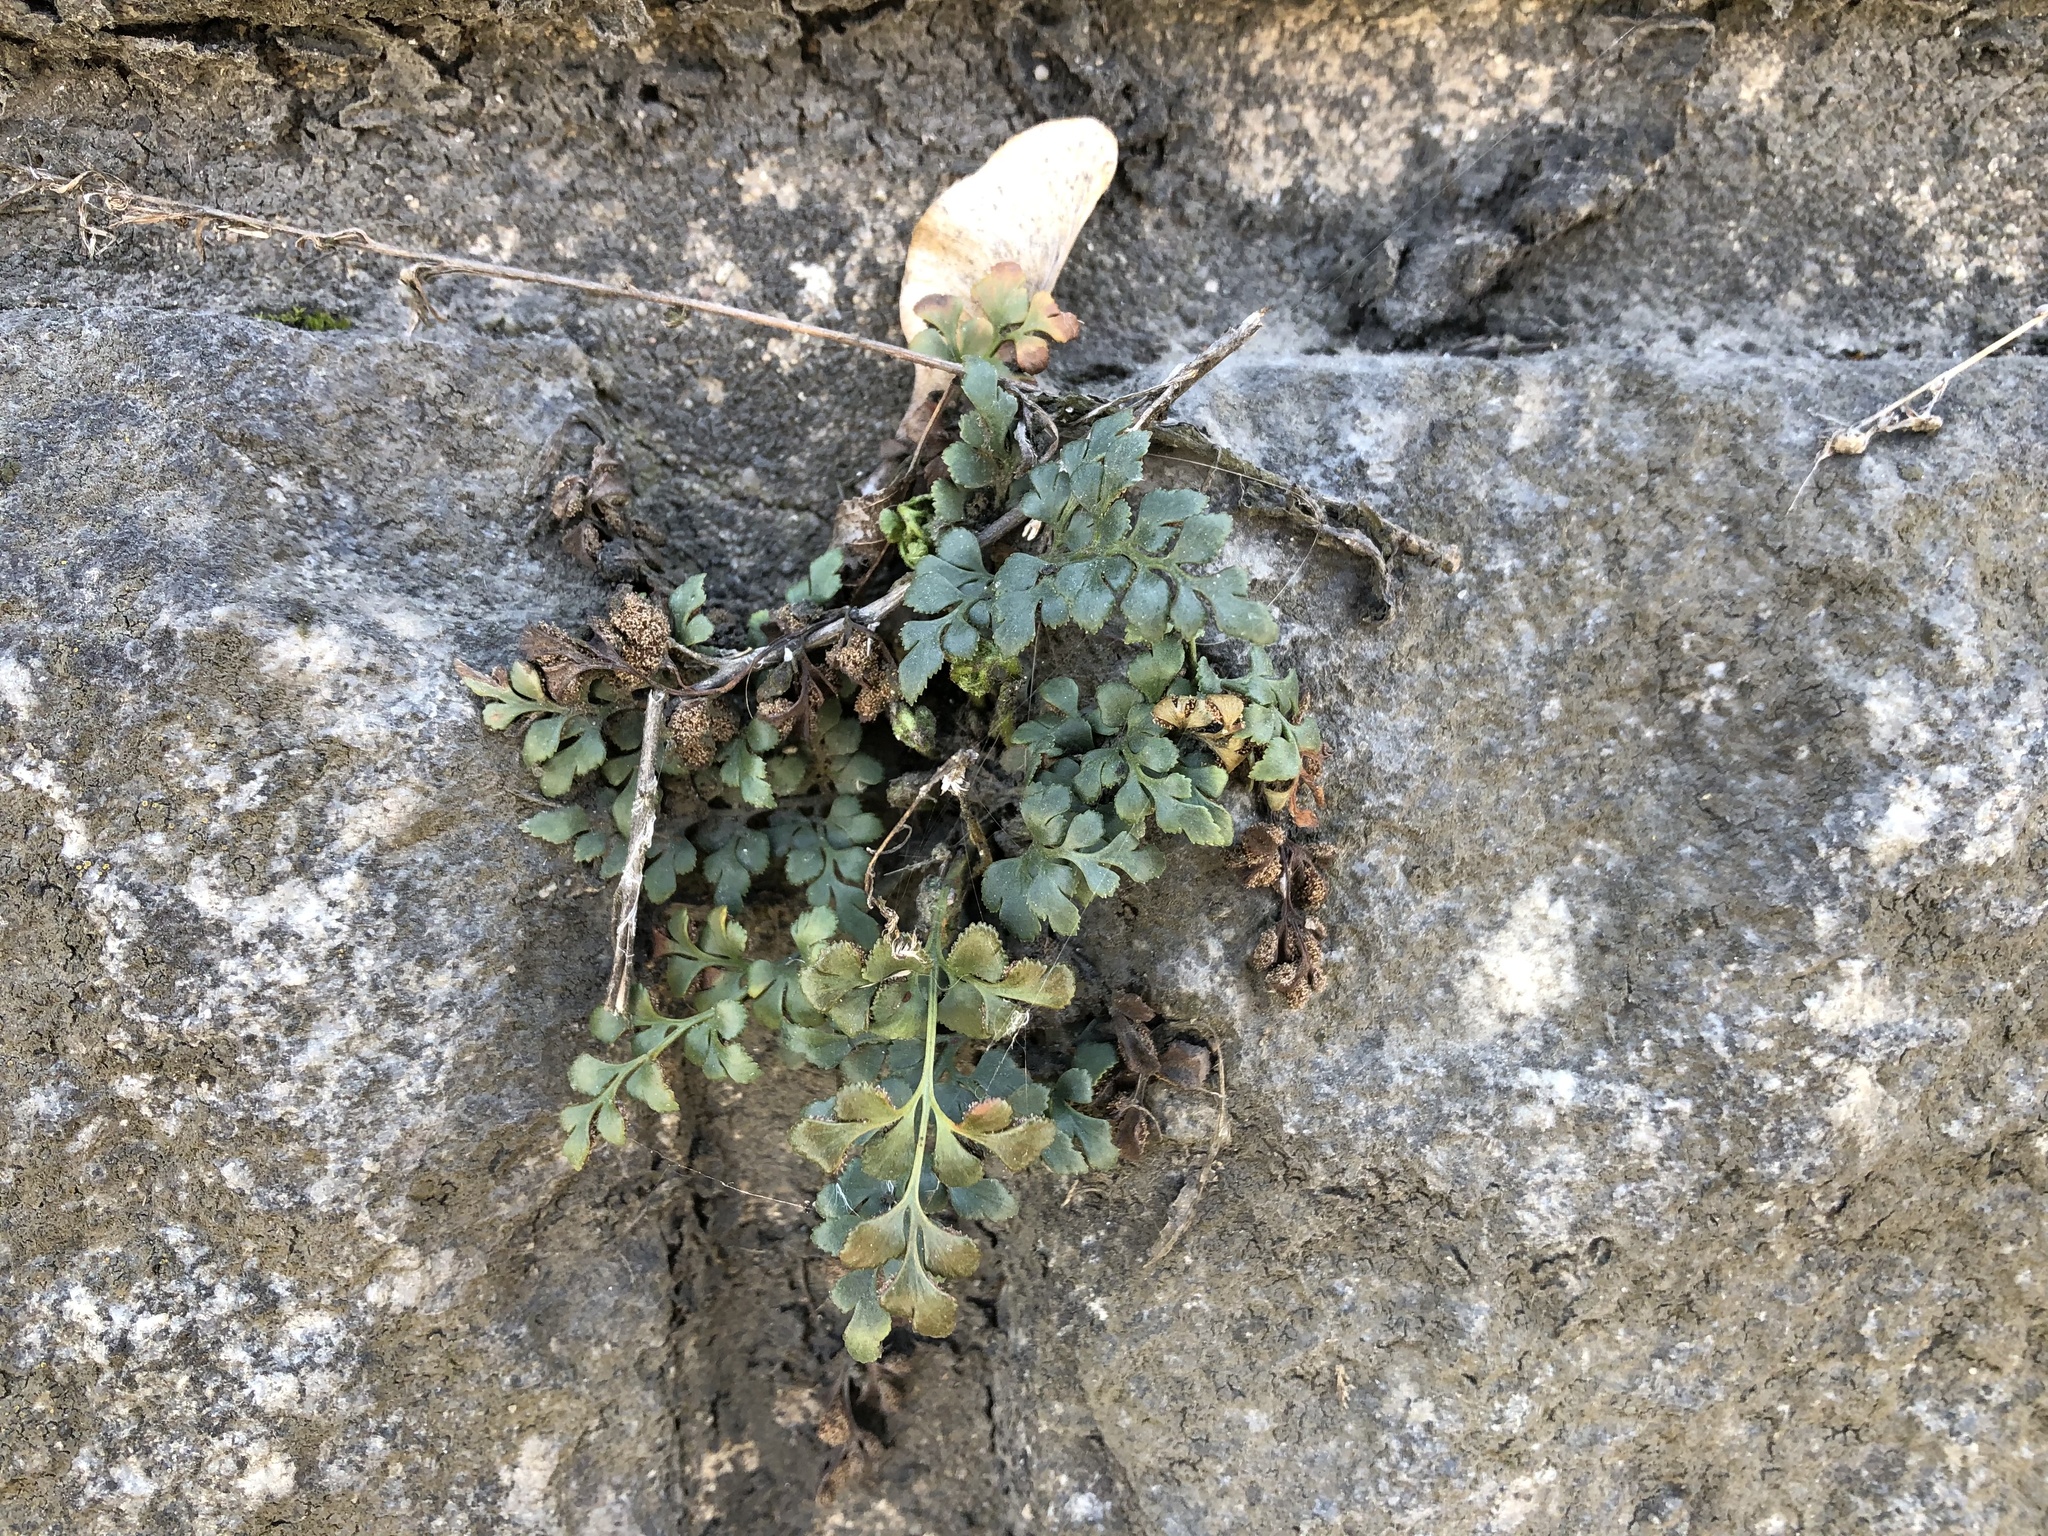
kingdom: Plantae
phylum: Tracheophyta
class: Polypodiopsida
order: Polypodiales
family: Aspleniaceae
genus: Asplenium
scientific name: Asplenium ruta-muraria
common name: Wall-rue
